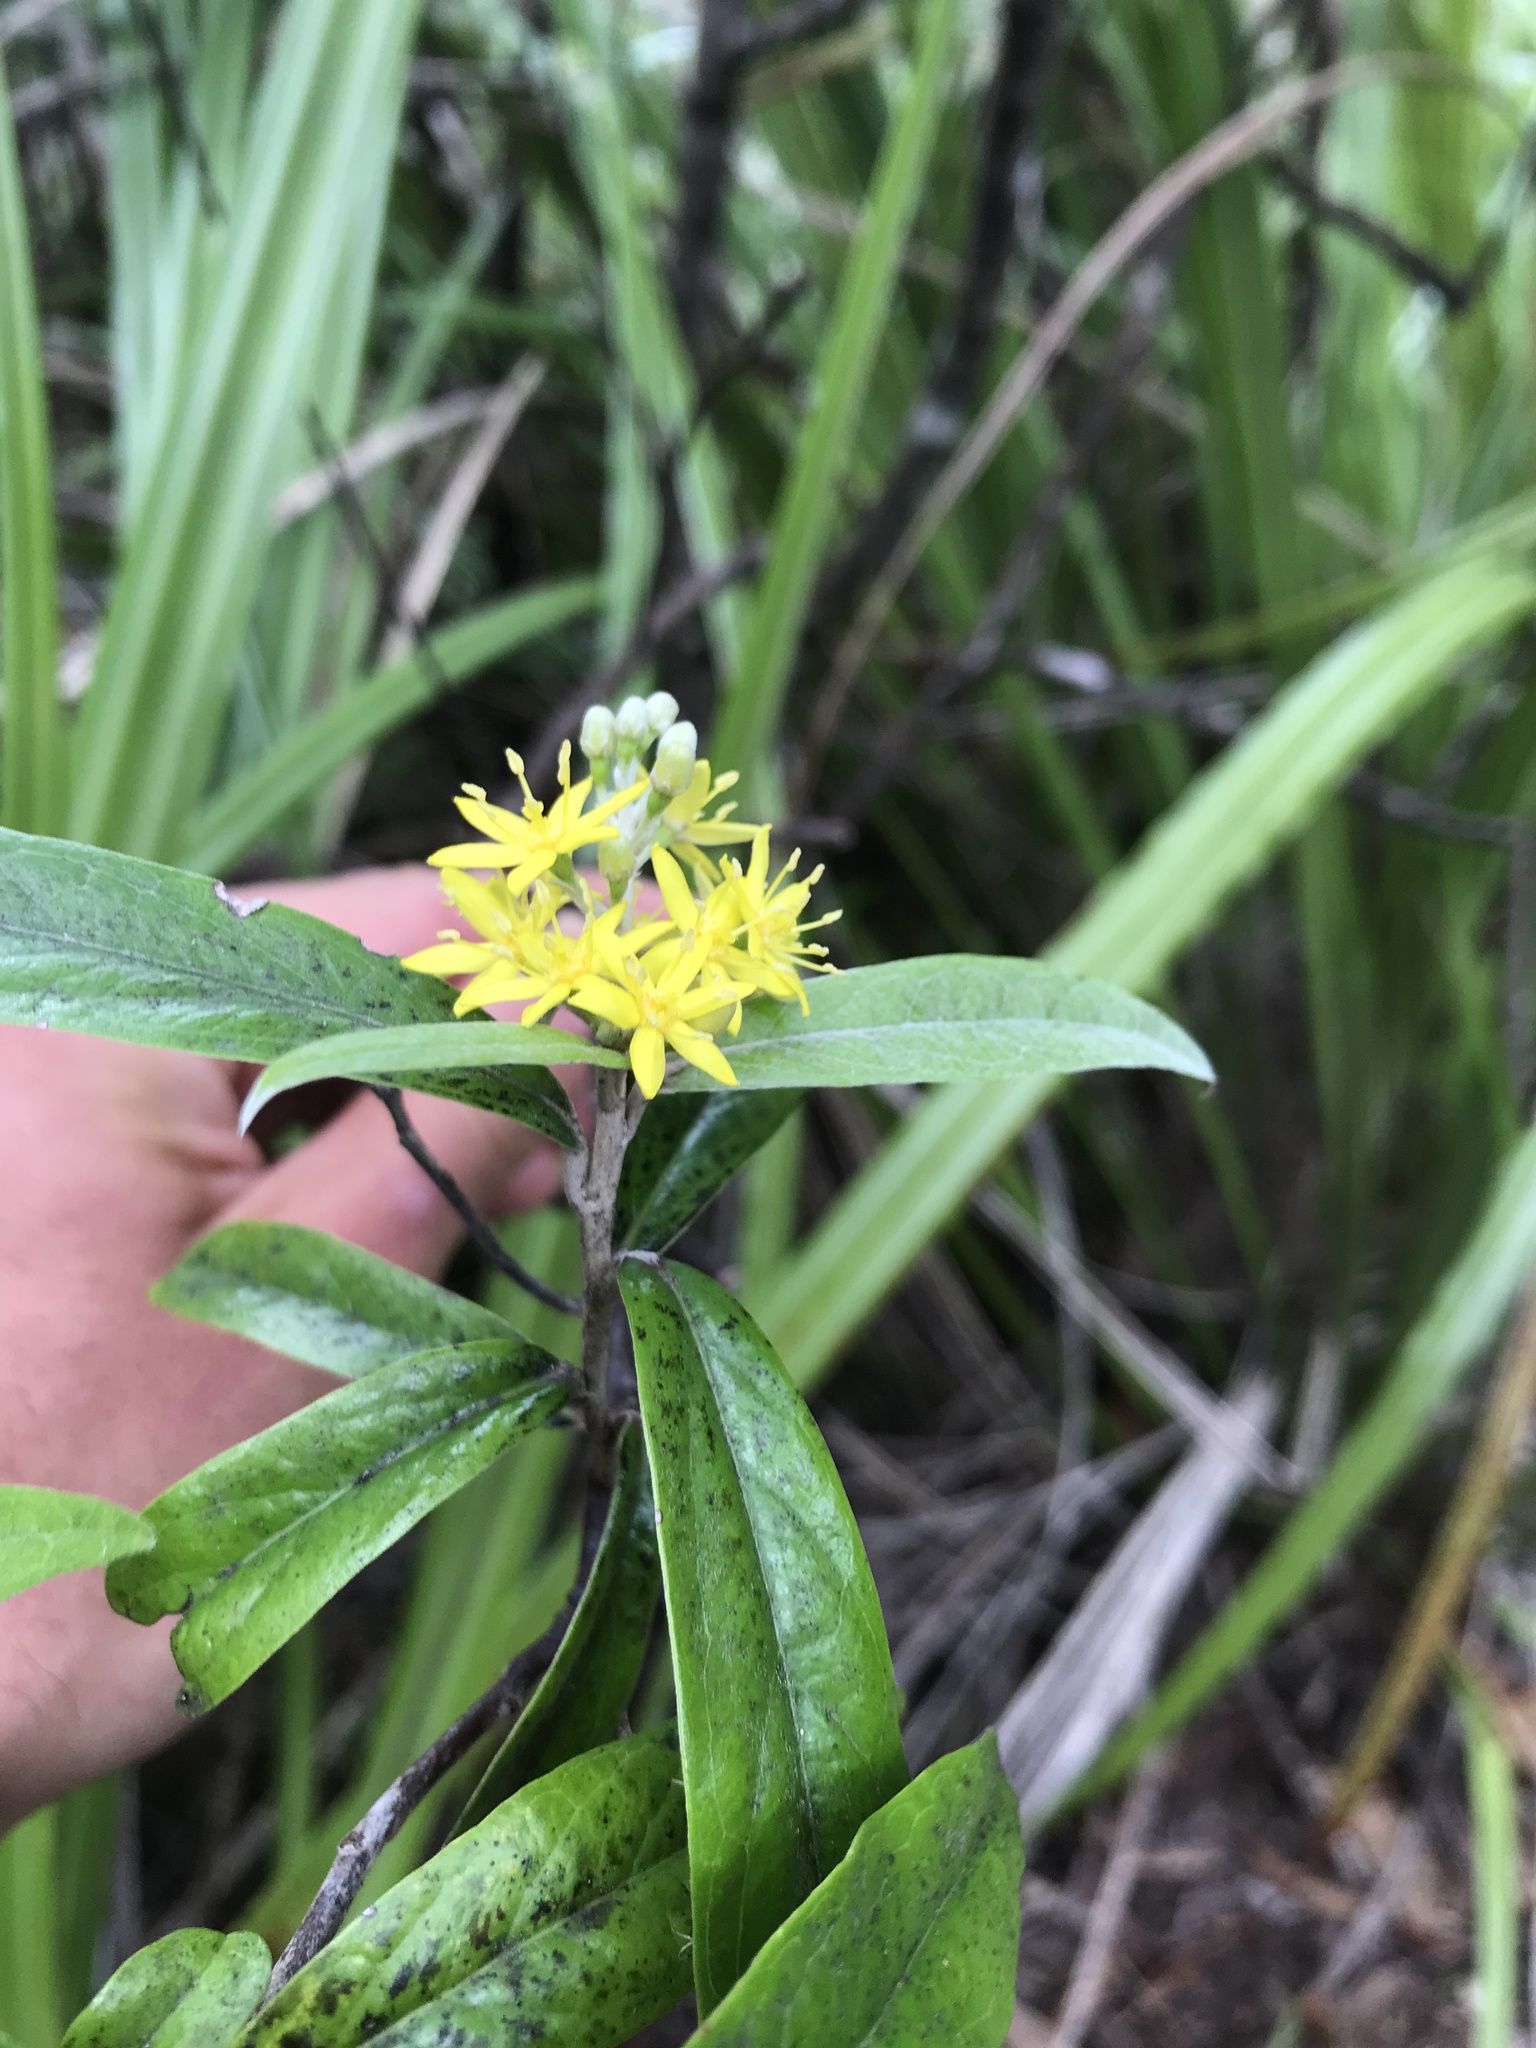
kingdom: Plantae
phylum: Tracheophyta
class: Magnoliopsida
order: Asterales
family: Argophyllaceae
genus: Corokia
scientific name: Corokia buddleioides
